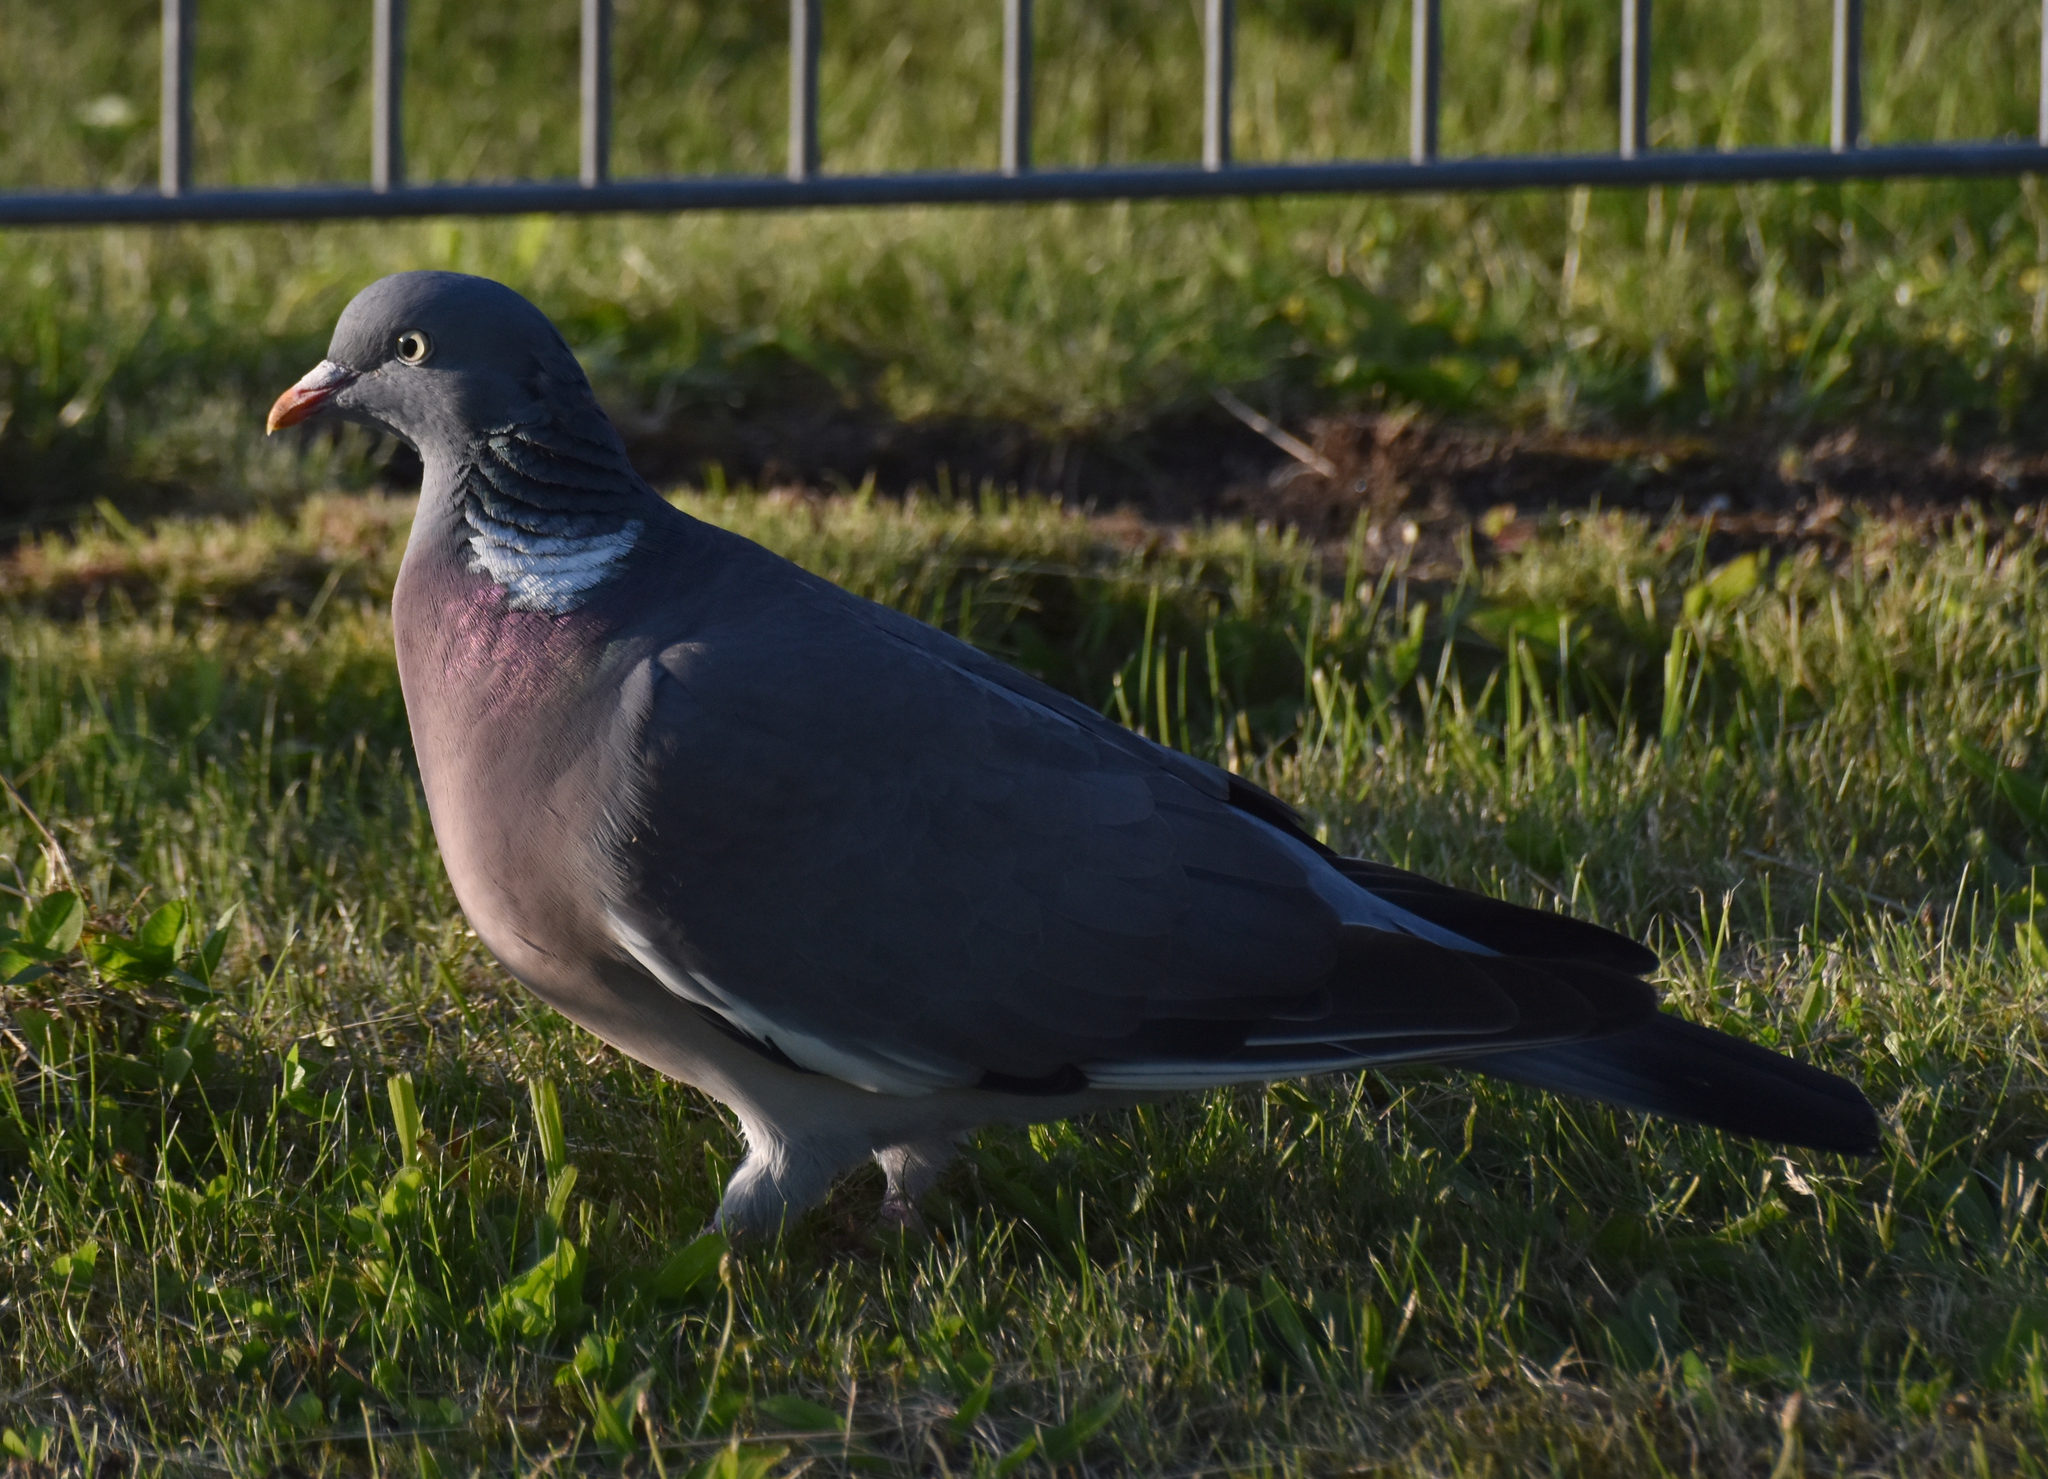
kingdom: Animalia
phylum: Chordata
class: Aves
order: Columbiformes
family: Columbidae
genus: Columba
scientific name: Columba palumbus
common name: Common wood pigeon
